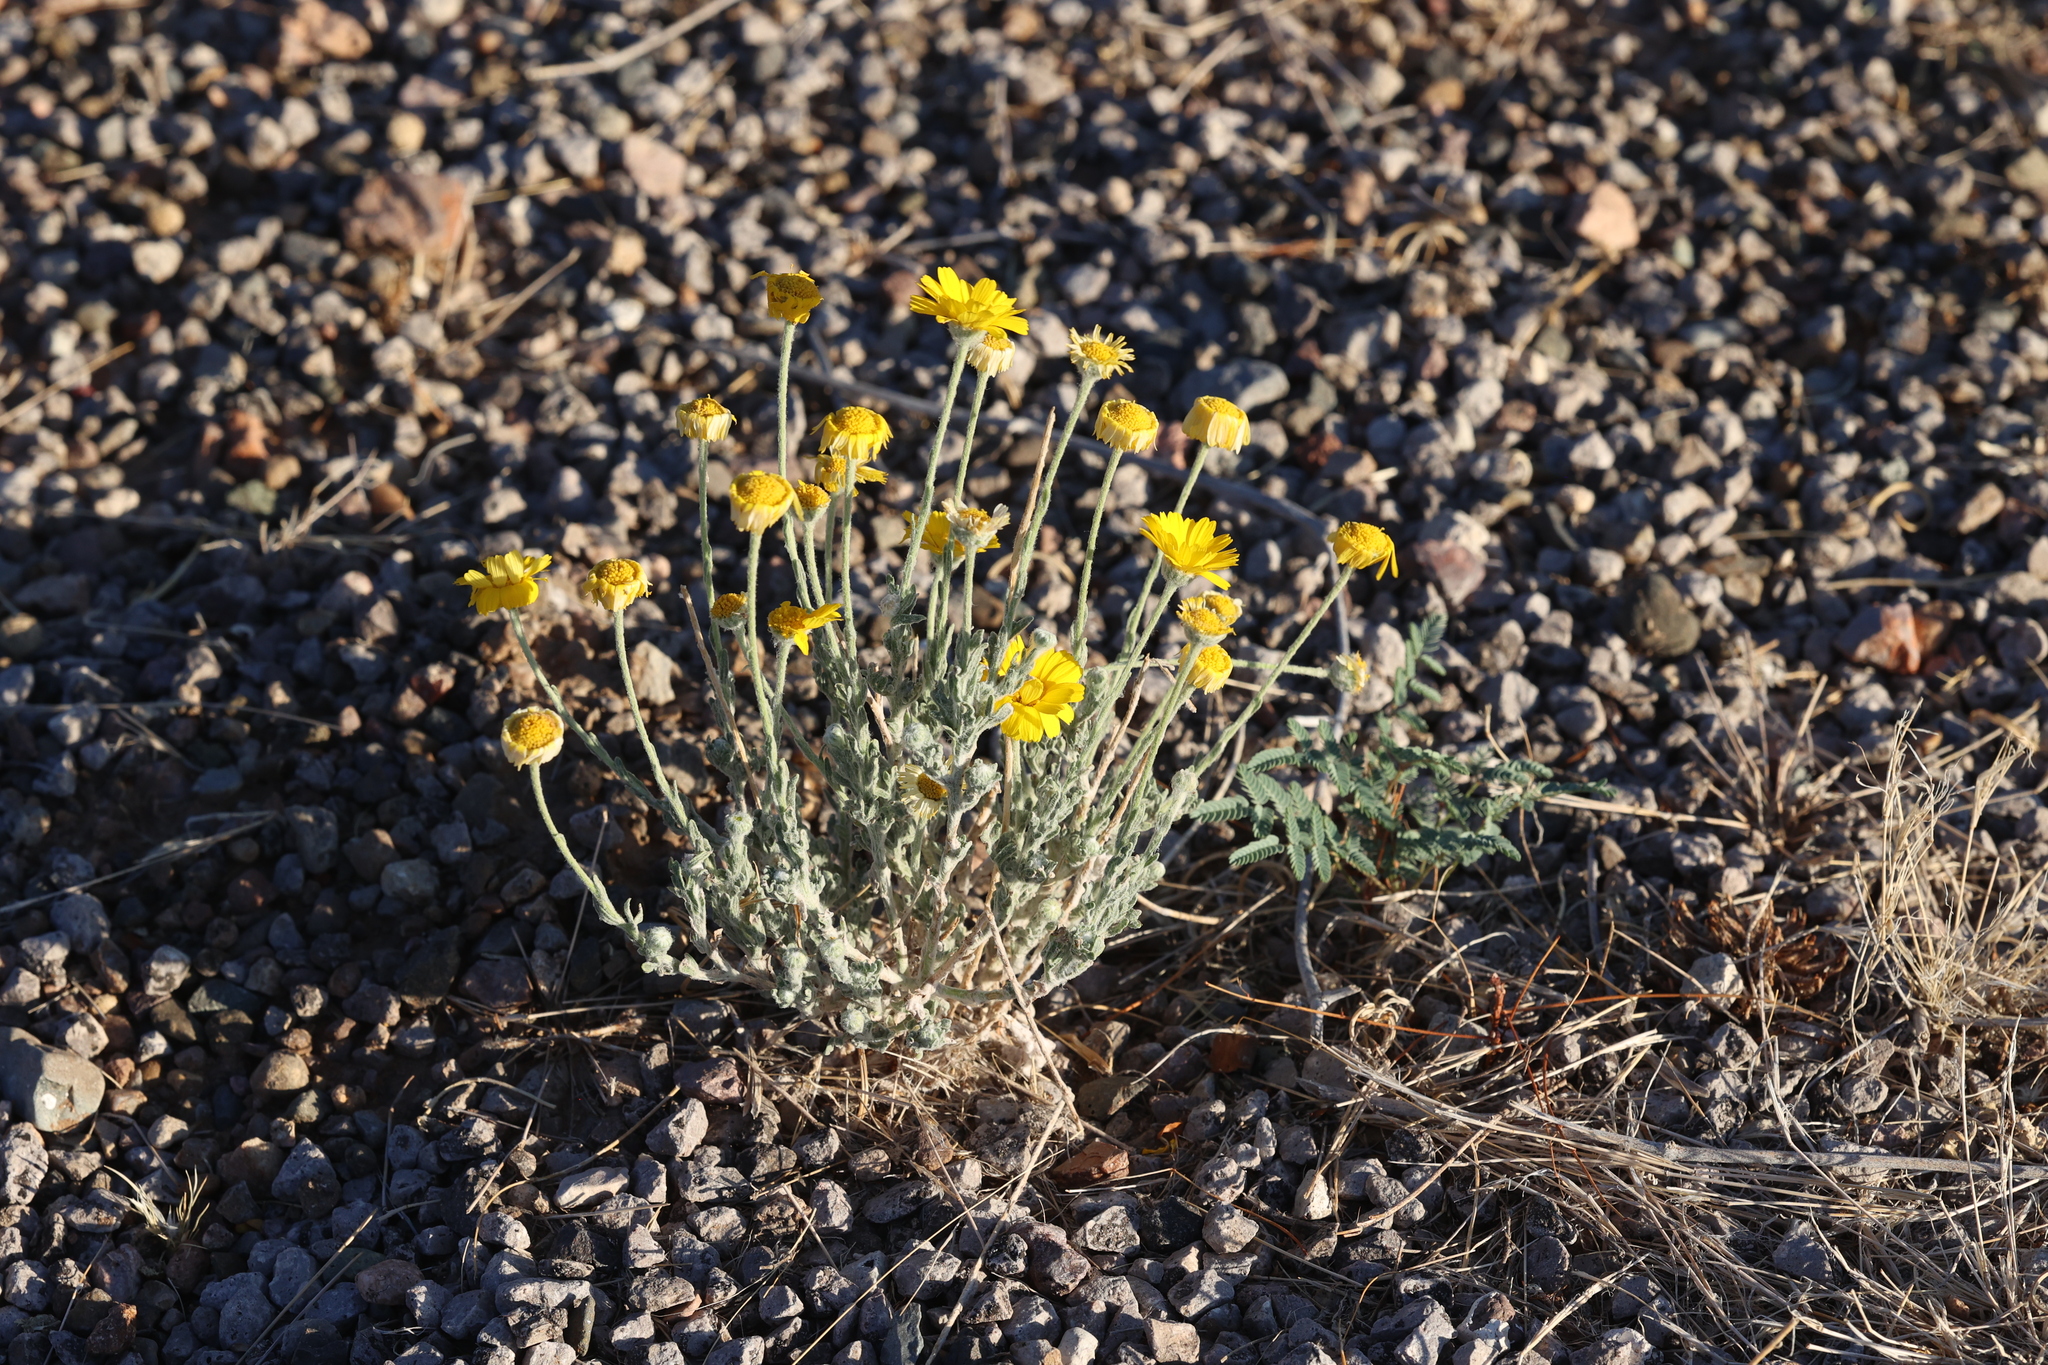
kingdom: Plantae
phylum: Tracheophyta
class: Magnoliopsida
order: Asterales
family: Asteraceae
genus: Baileya
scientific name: Baileya multiradiata
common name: Desert-marigold
